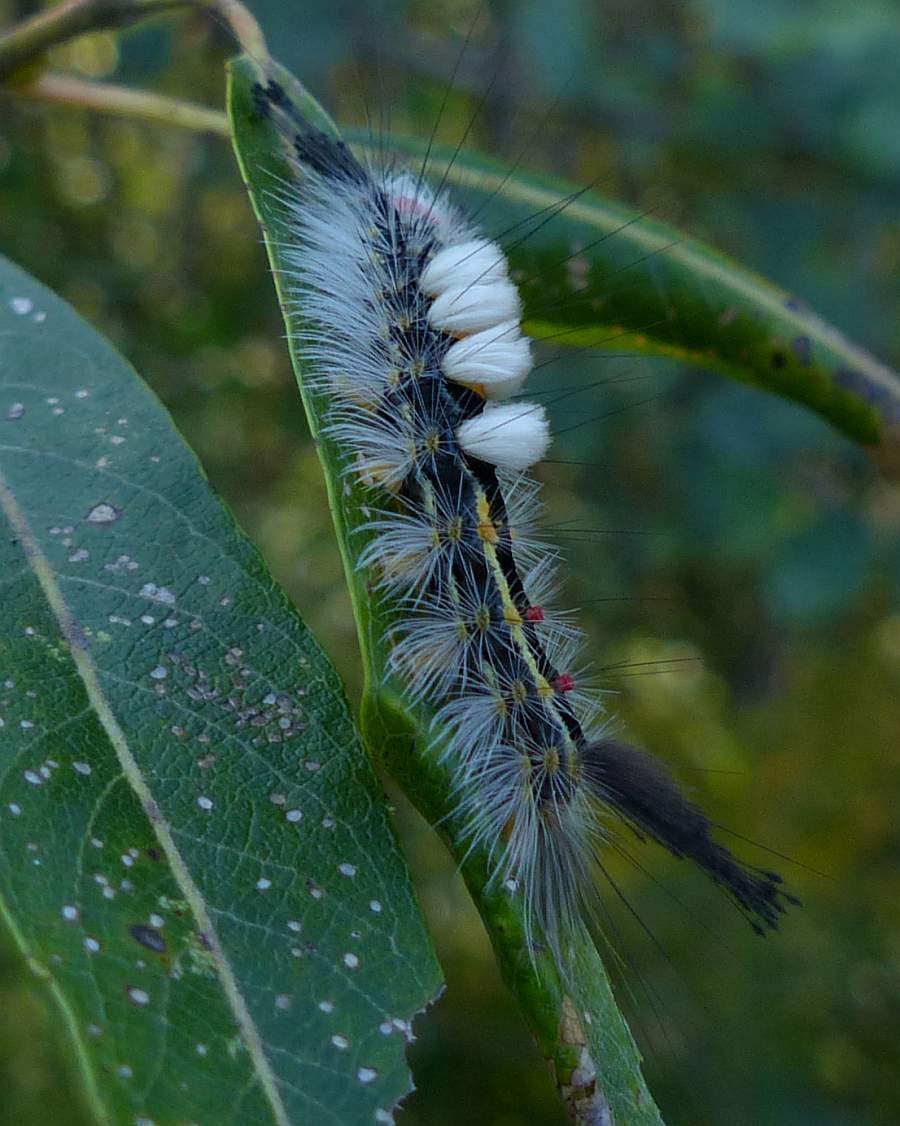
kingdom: Animalia
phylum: Arthropoda
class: Insecta
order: Lepidoptera
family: Erebidae
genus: Orgyia
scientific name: Orgyia leucostigma
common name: White-marked tussock moth
